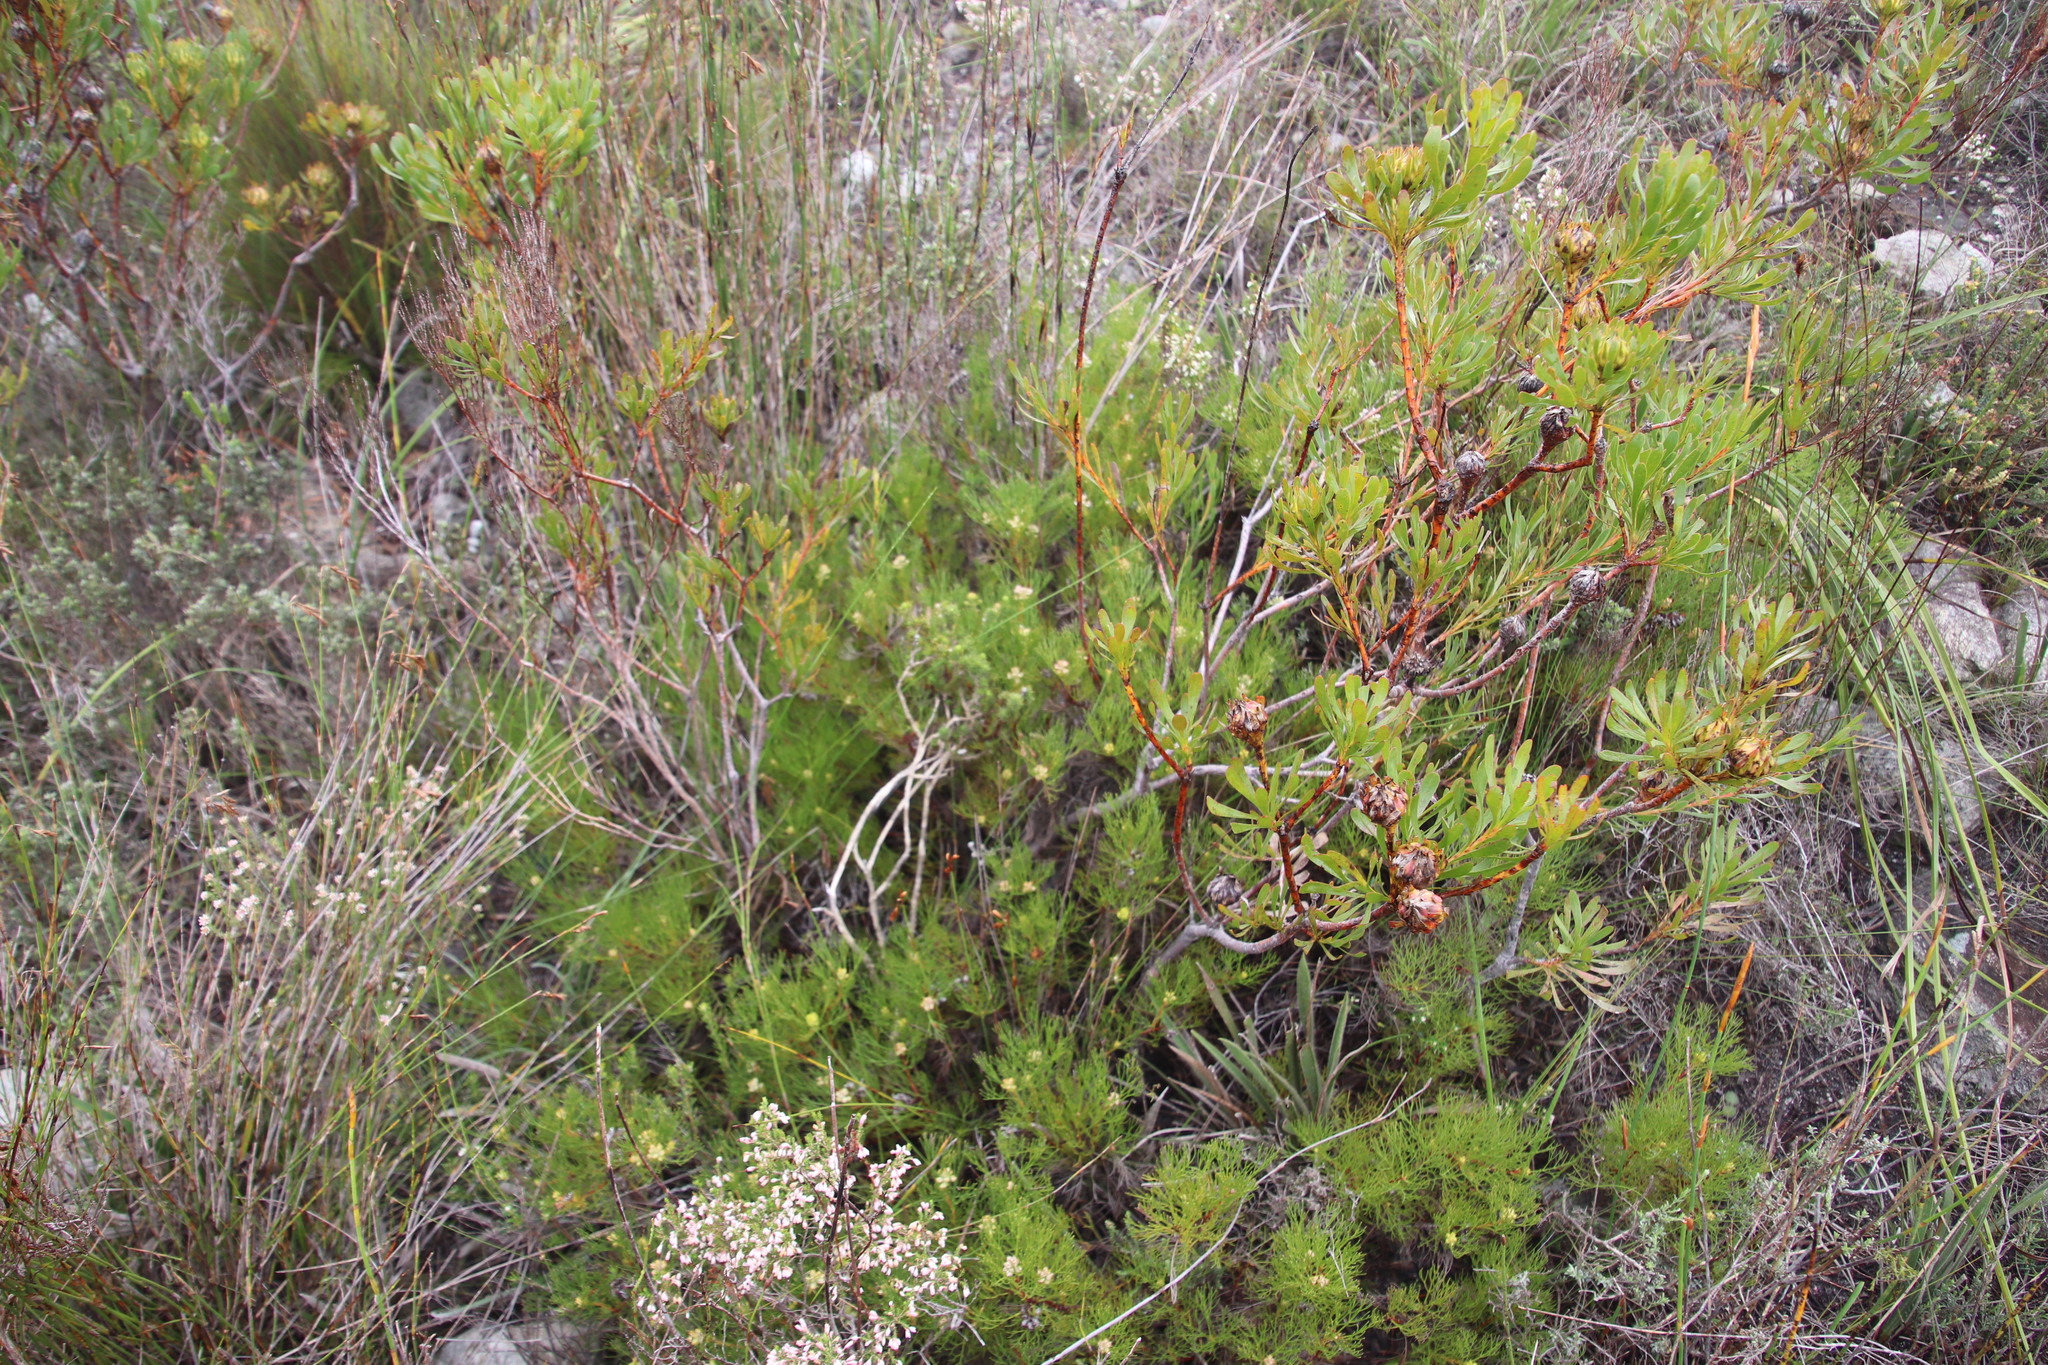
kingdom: Plantae
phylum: Tracheophyta
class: Magnoliopsida
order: Proteales
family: Proteaceae
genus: Aulax
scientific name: Aulax umbellata
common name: Broad-leaf featherbush
